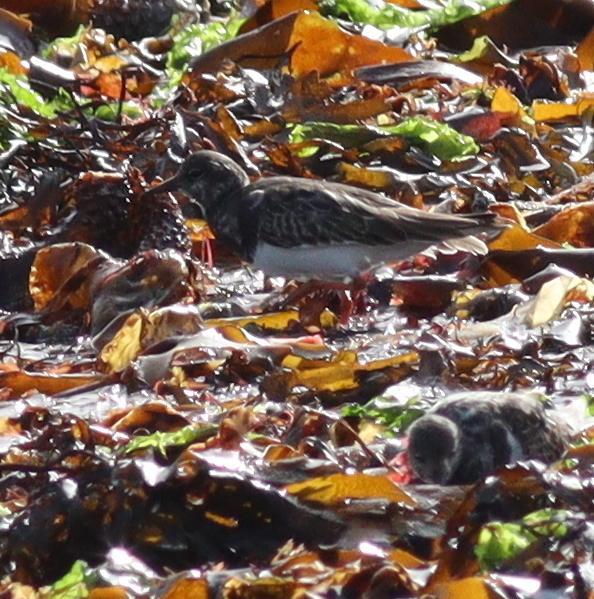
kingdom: Animalia
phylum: Chordata
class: Aves
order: Charadriiformes
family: Scolopacidae
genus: Arenaria
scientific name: Arenaria interpres
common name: Ruddy turnstone
